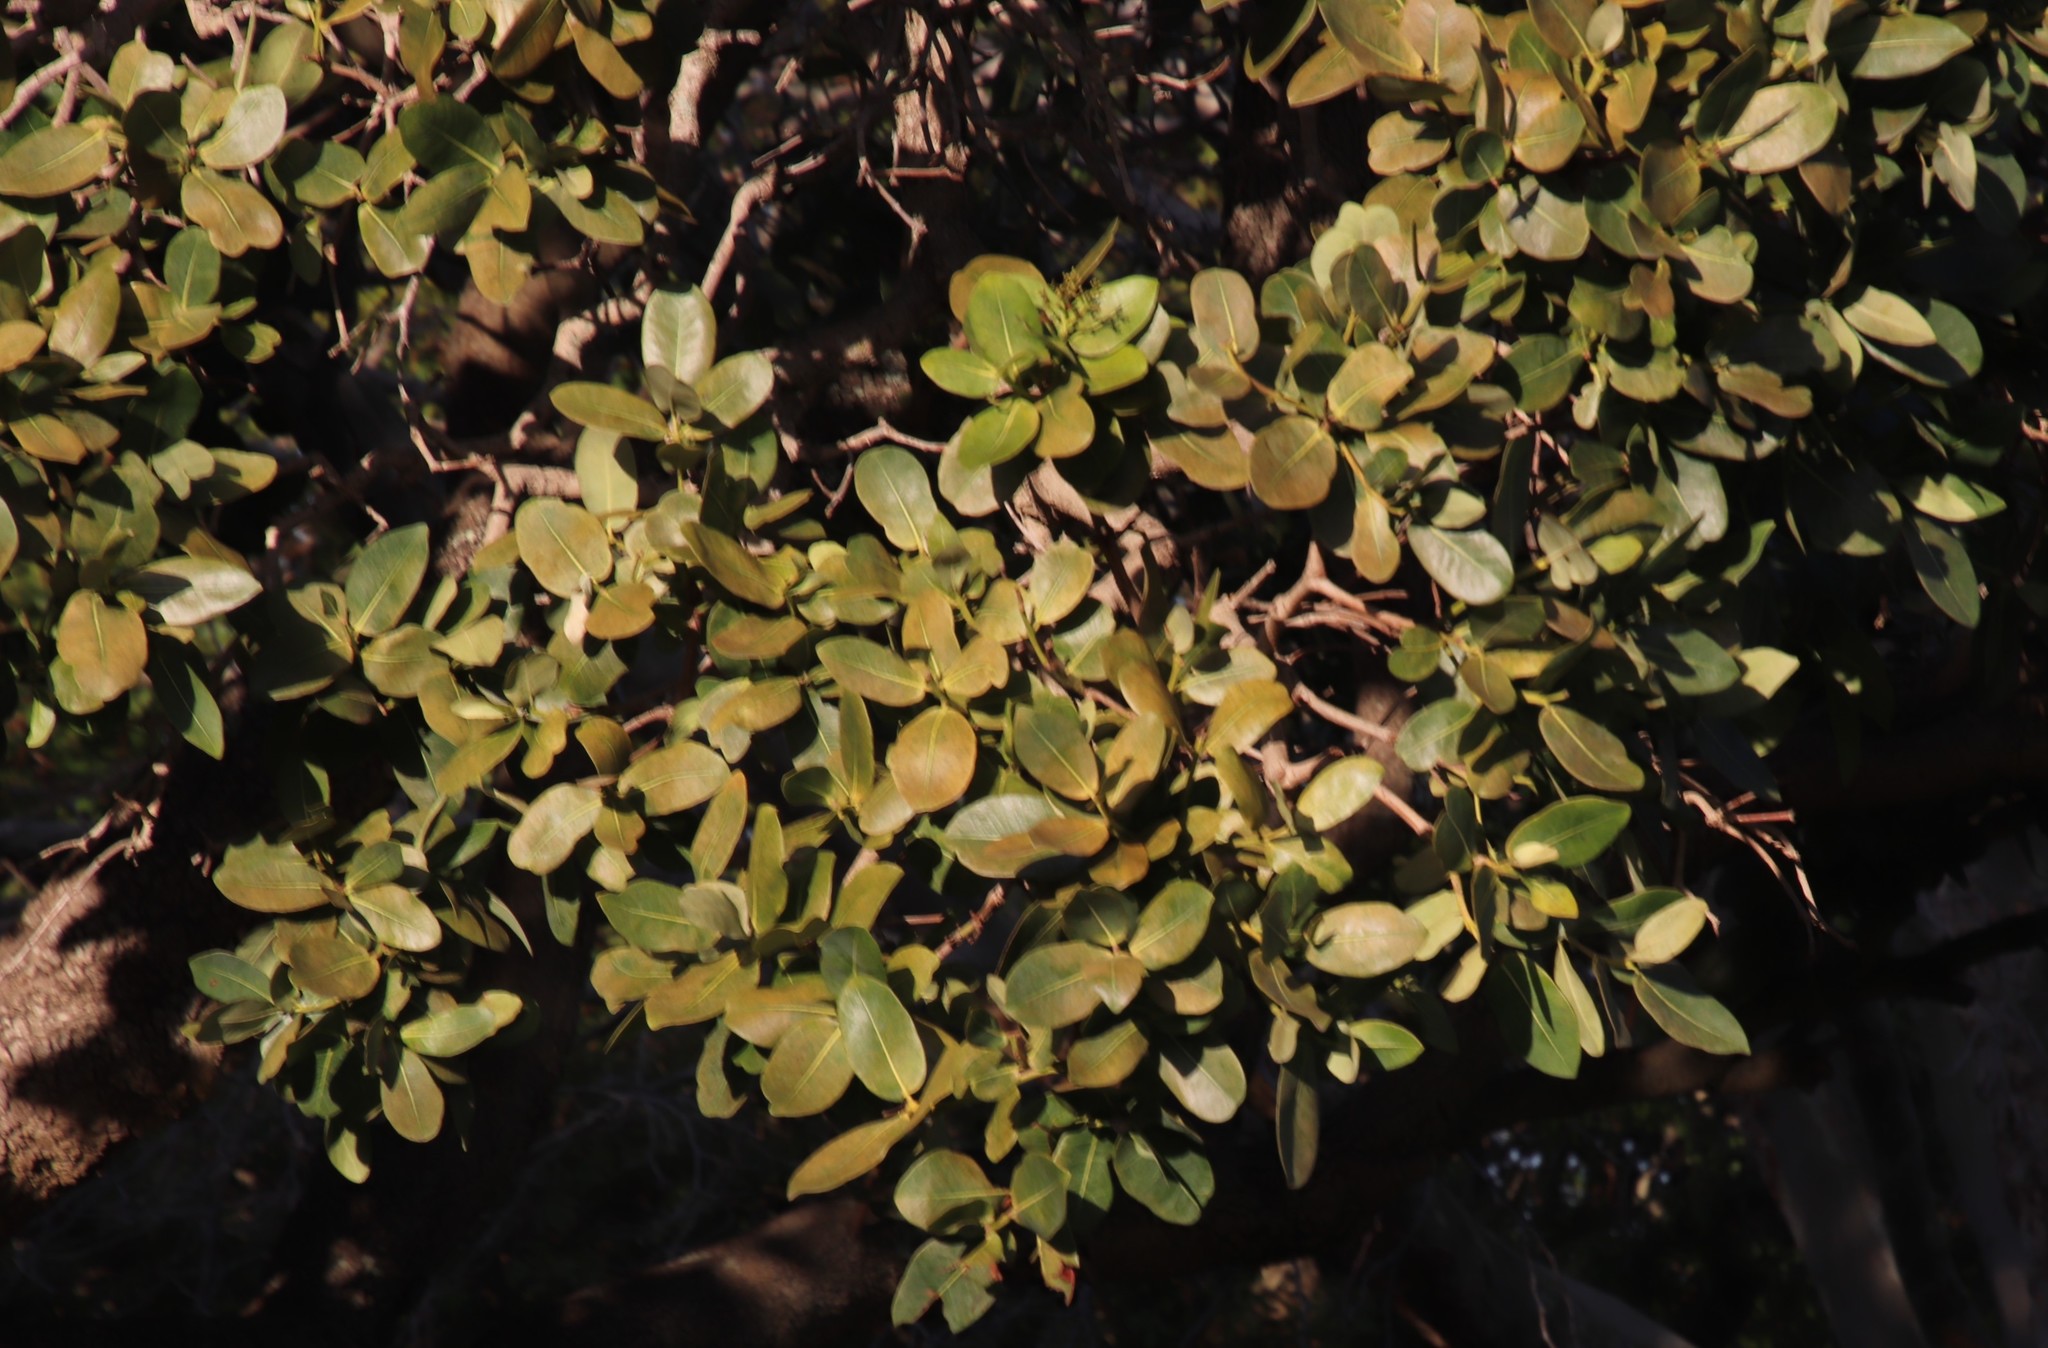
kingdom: Plantae
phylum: Tracheophyta
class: Magnoliopsida
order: Myrtales
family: Myrtaceae
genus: Syzygium
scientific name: Syzygium cordatum
